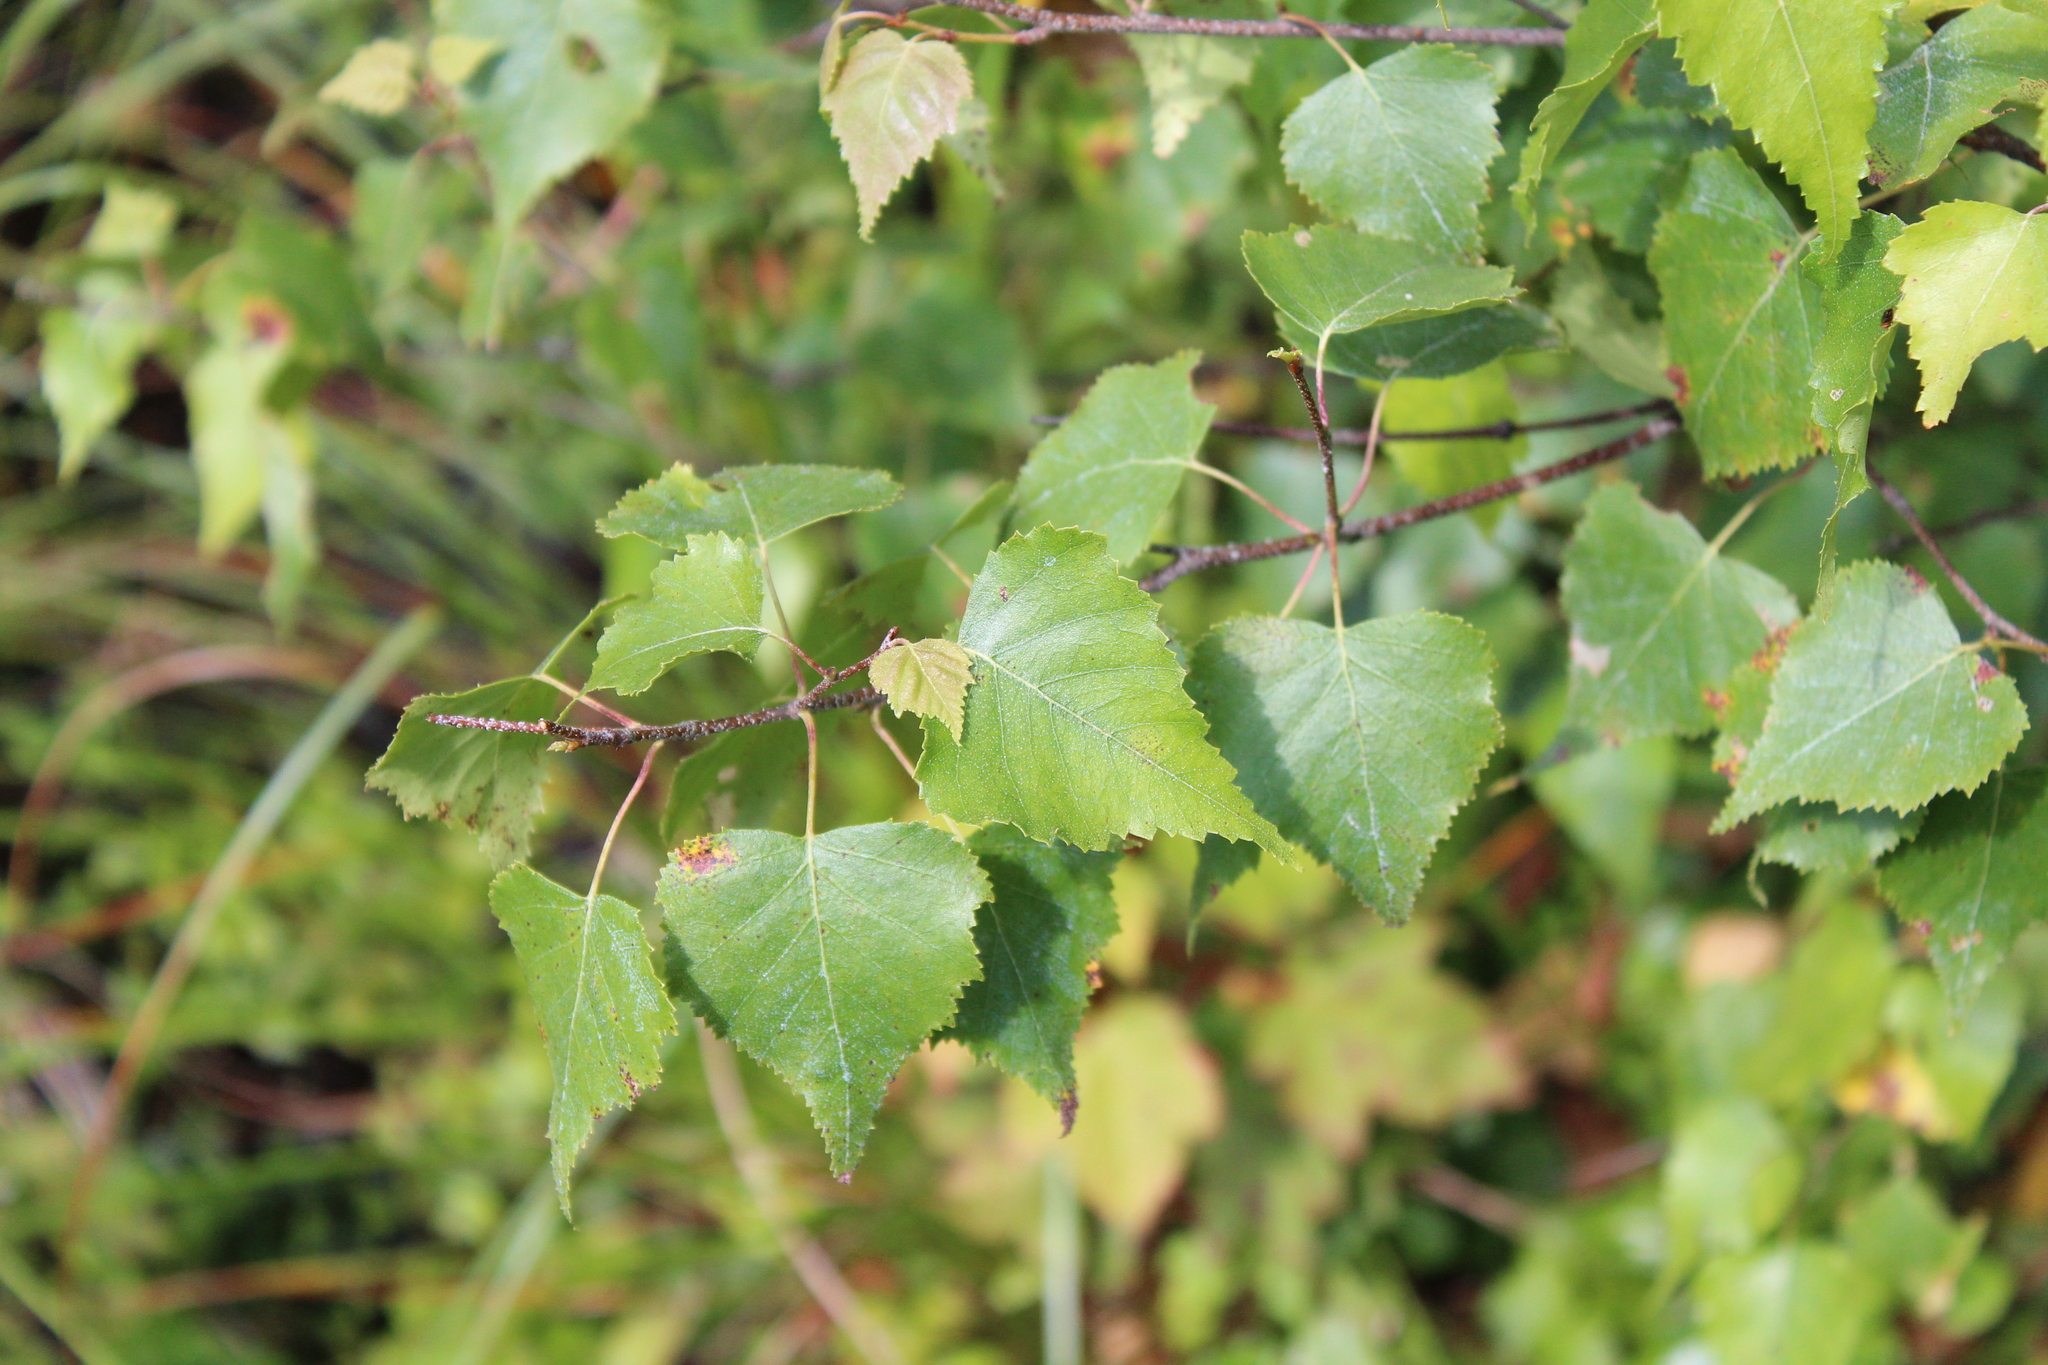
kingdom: Plantae
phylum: Tracheophyta
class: Magnoliopsida
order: Fagales
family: Betulaceae
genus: Betula
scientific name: Betula populifolia
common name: Fire birch
